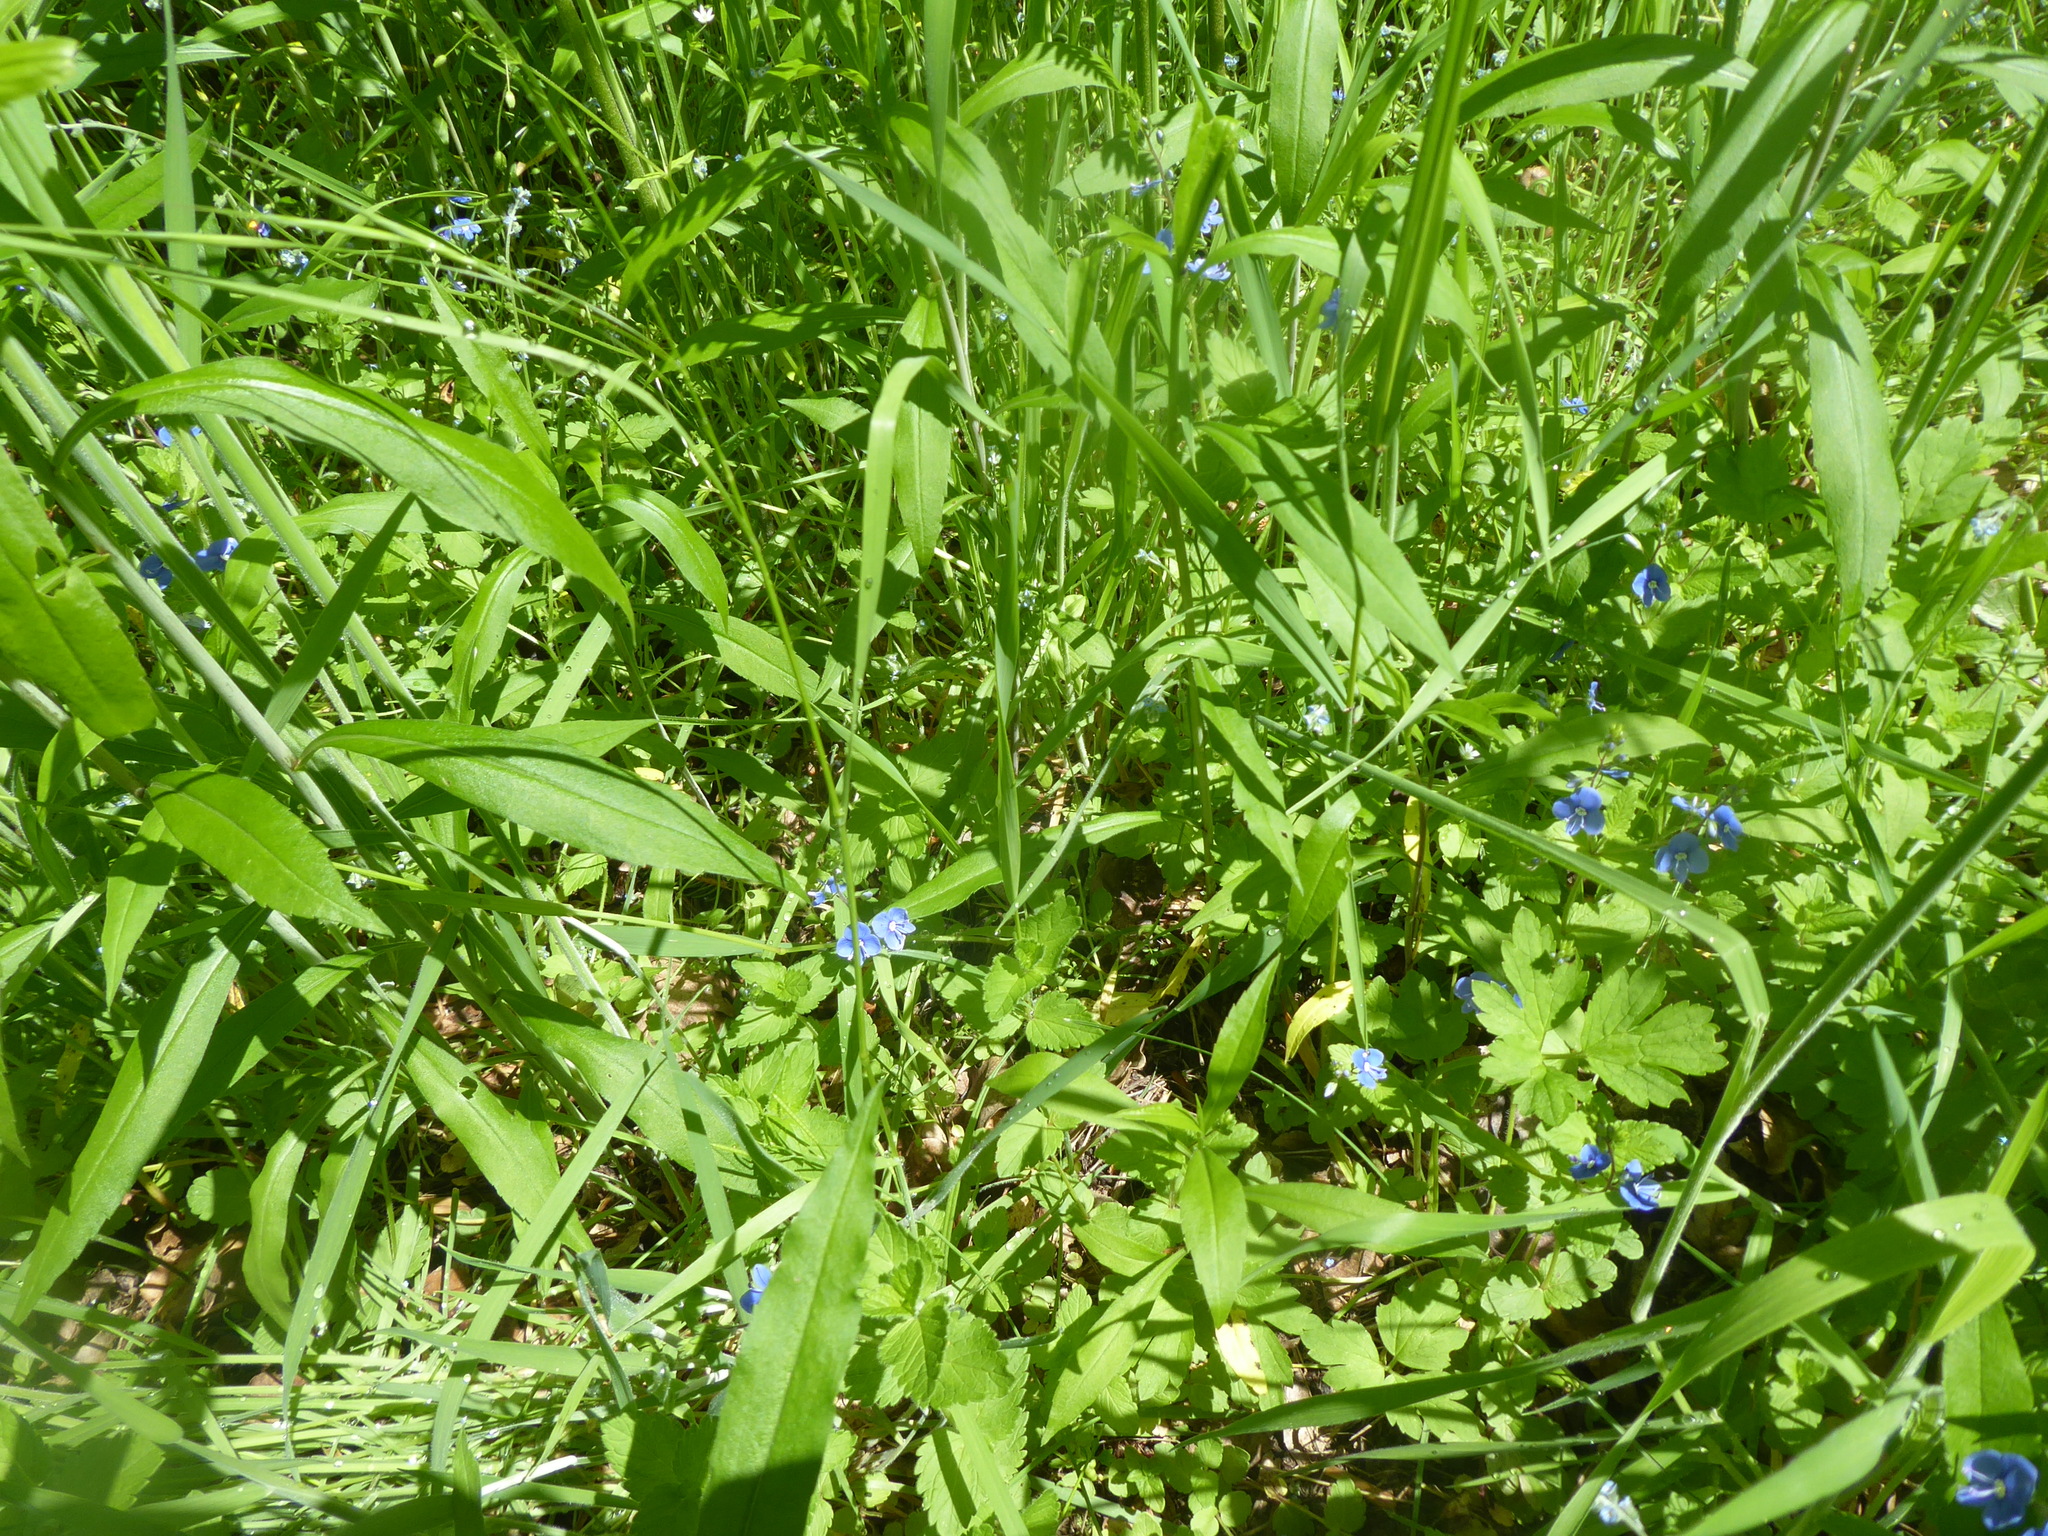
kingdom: Plantae
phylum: Tracheophyta
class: Magnoliopsida
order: Lamiales
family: Plantaginaceae
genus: Veronica
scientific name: Veronica chamaedrys
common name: Germander speedwell
